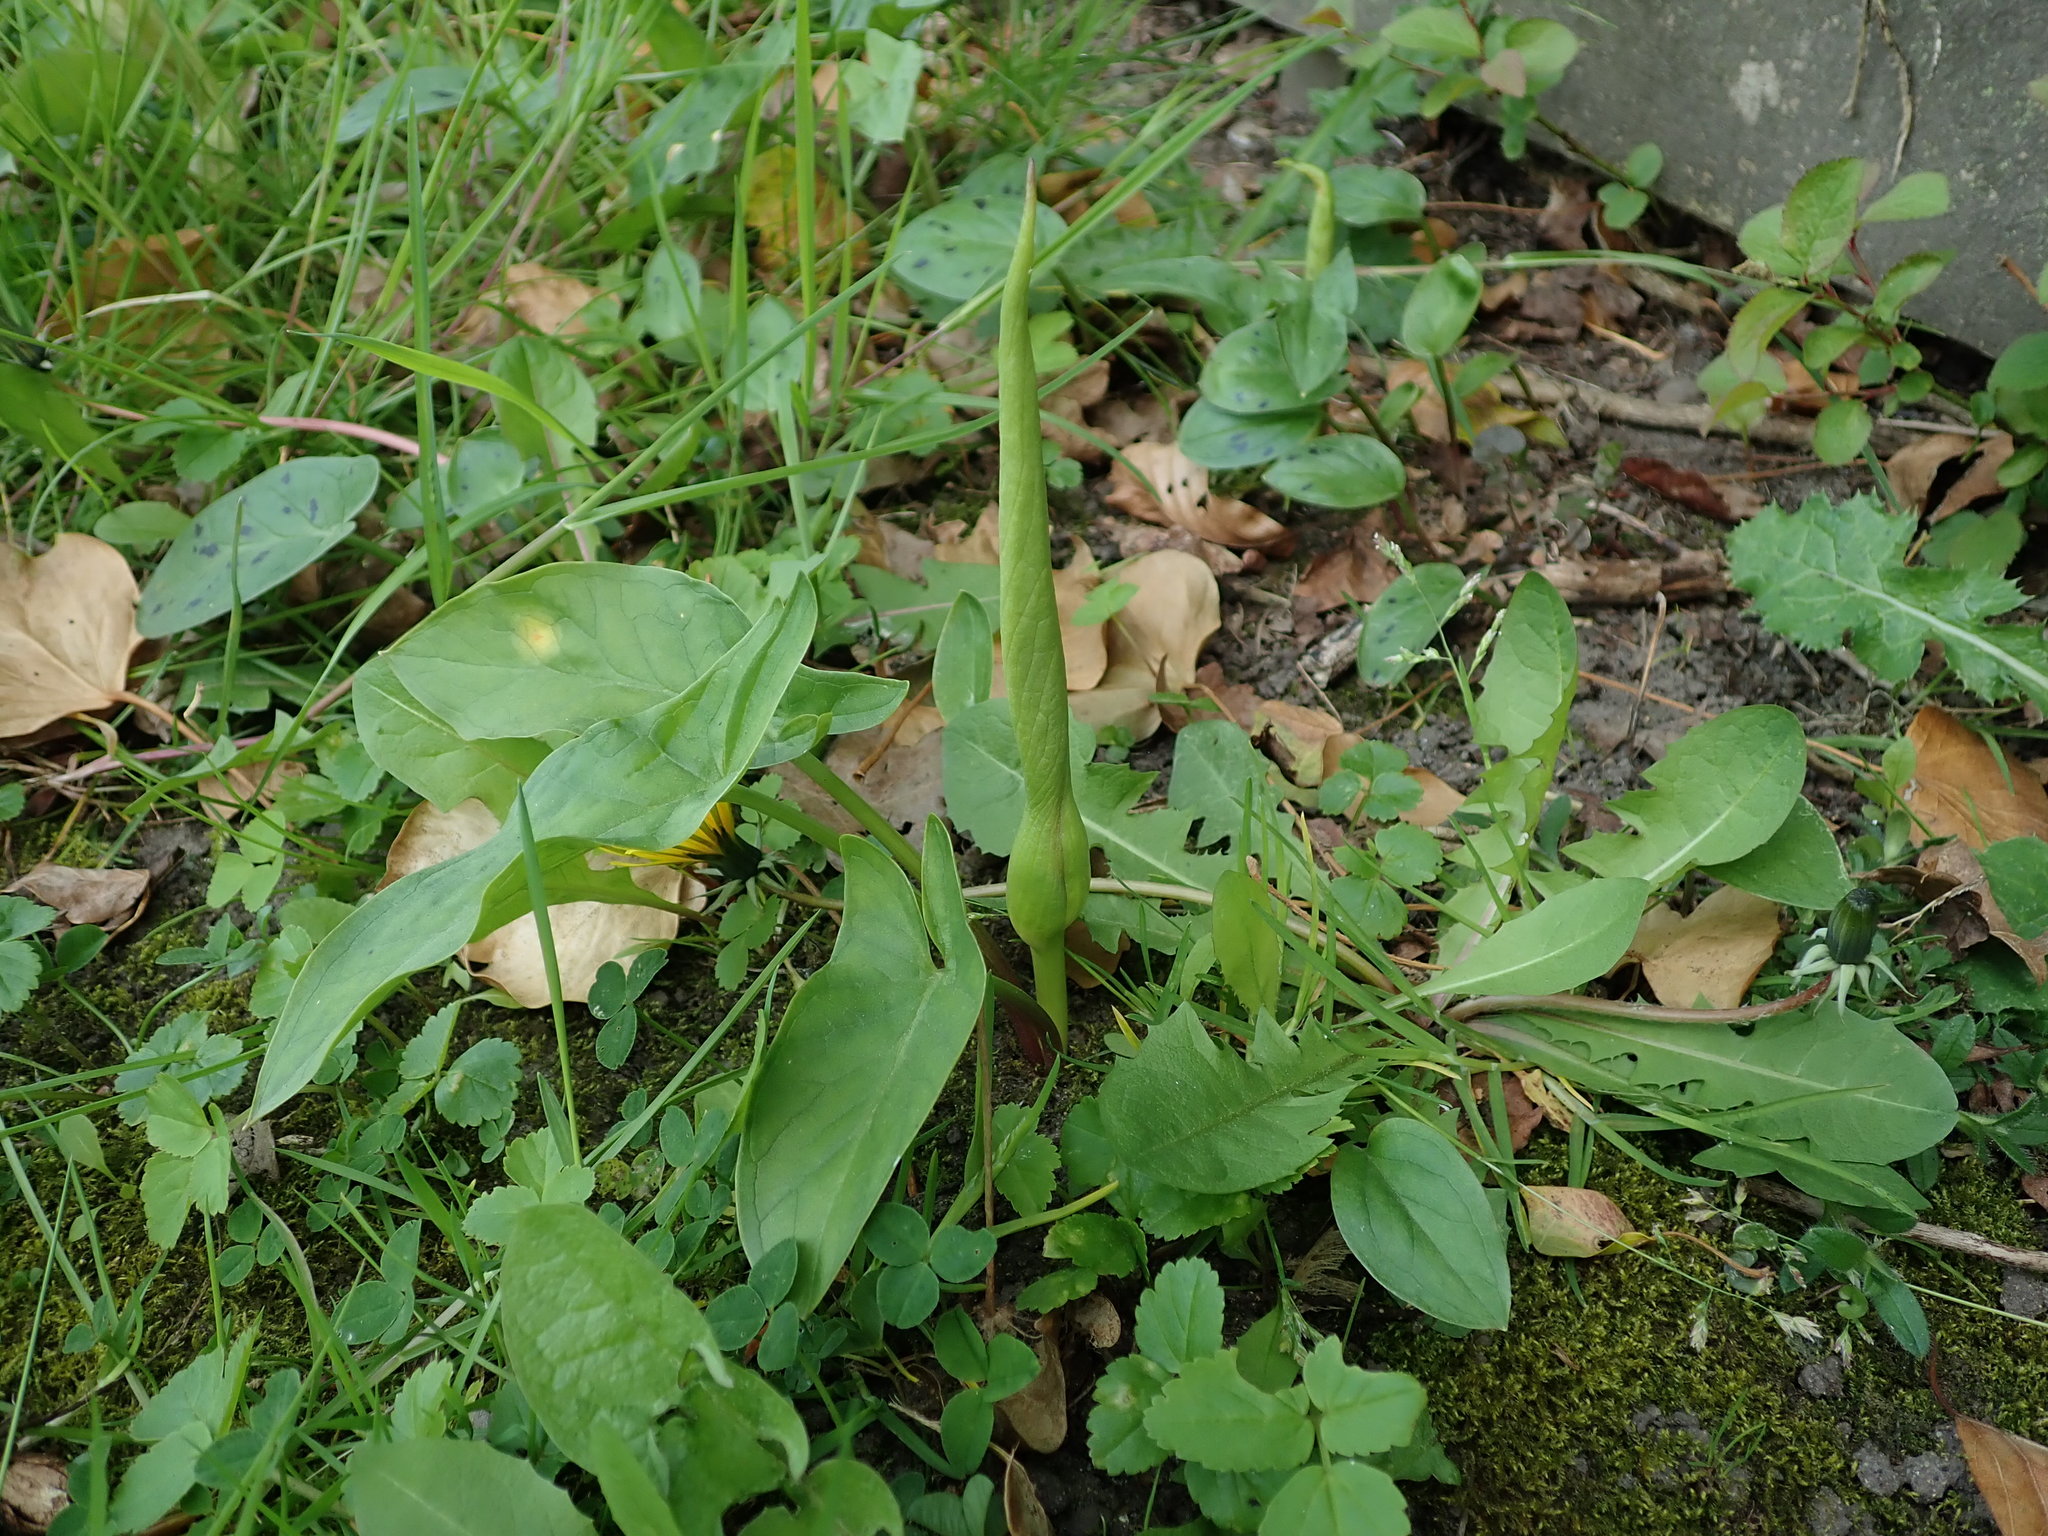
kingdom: Plantae
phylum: Tracheophyta
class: Liliopsida
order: Alismatales
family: Araceae
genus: Arum
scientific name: Arum maculatum
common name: Lords-and-ladies
